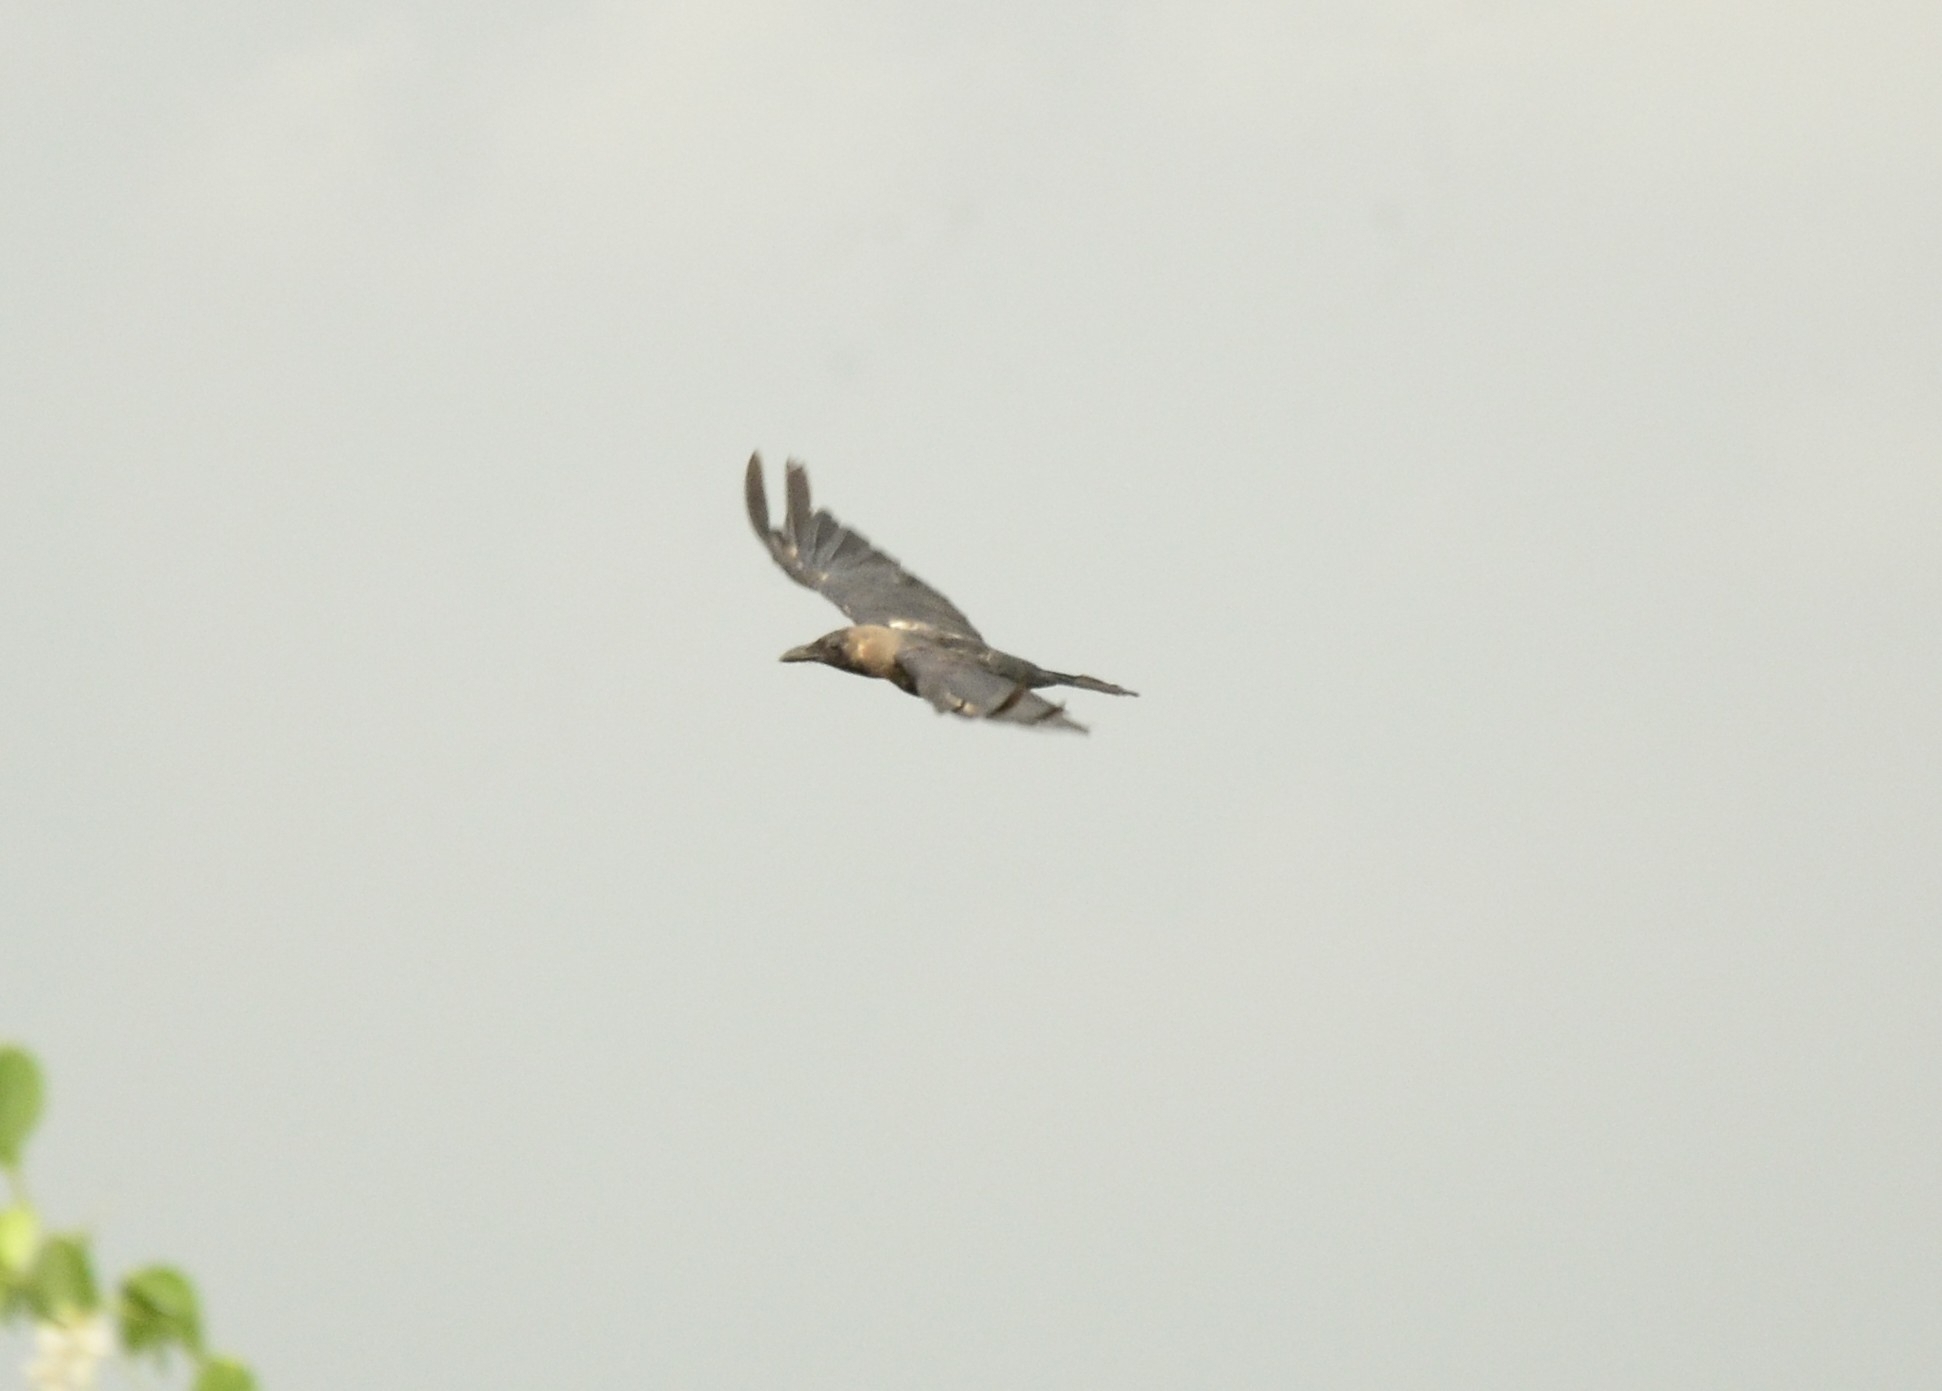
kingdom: Animalia
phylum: Chordata
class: Aves
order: Passeriformes
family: Corvidae
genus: Corvus
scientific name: Corvus splendens
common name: House crow
